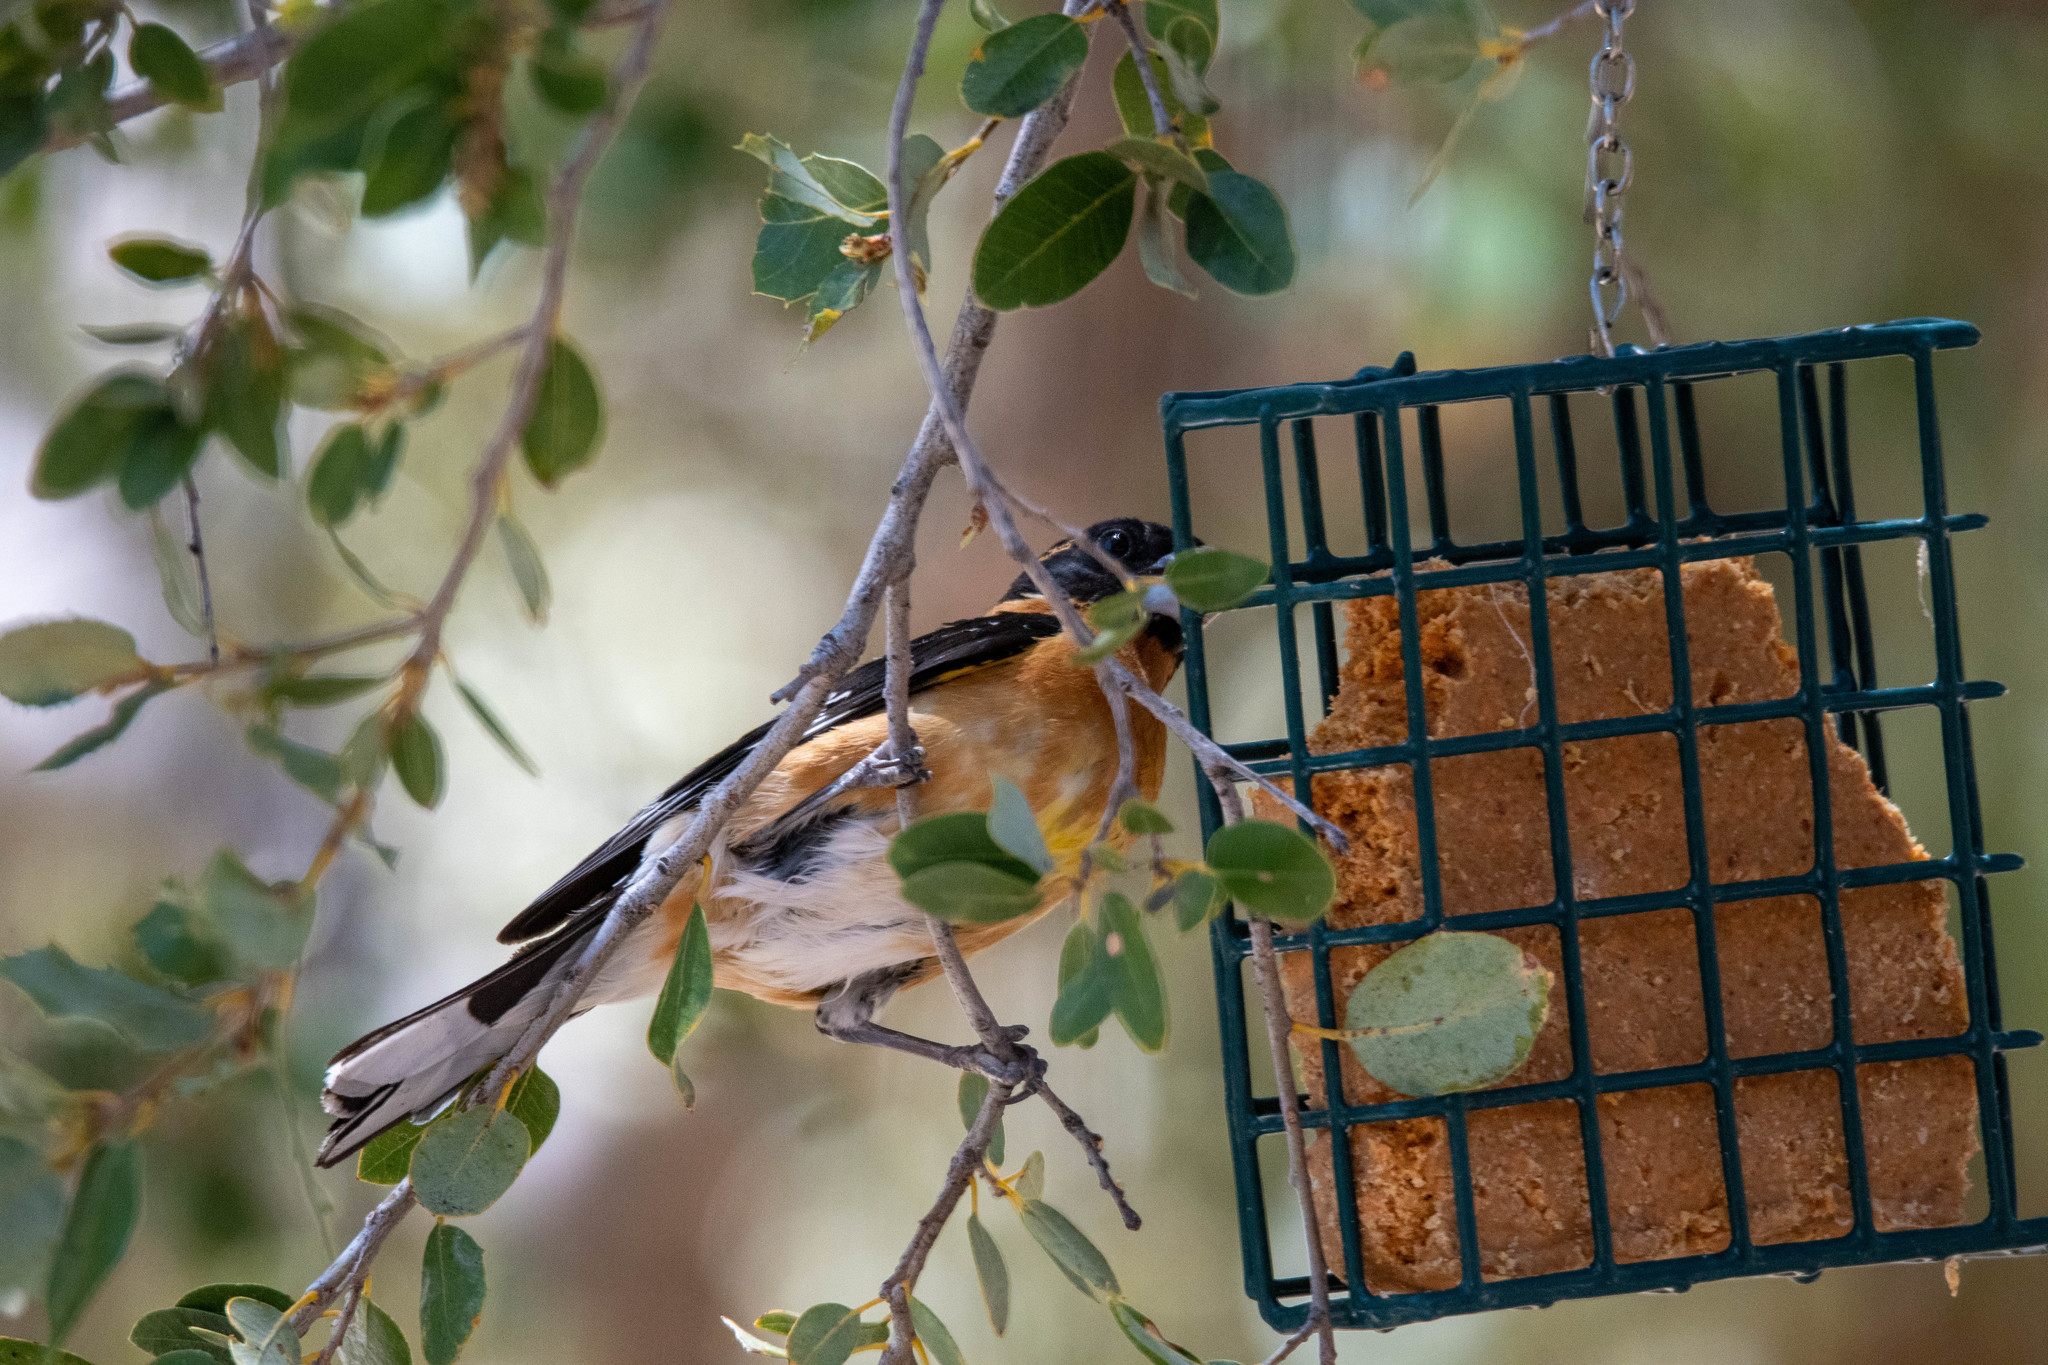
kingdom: Animalia
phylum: Chordata
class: Aves
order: Passeriformes
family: Cardinalidae
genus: Pheucticus
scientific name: Pheucticus melanocephalus
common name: Black-headed grosbeak
